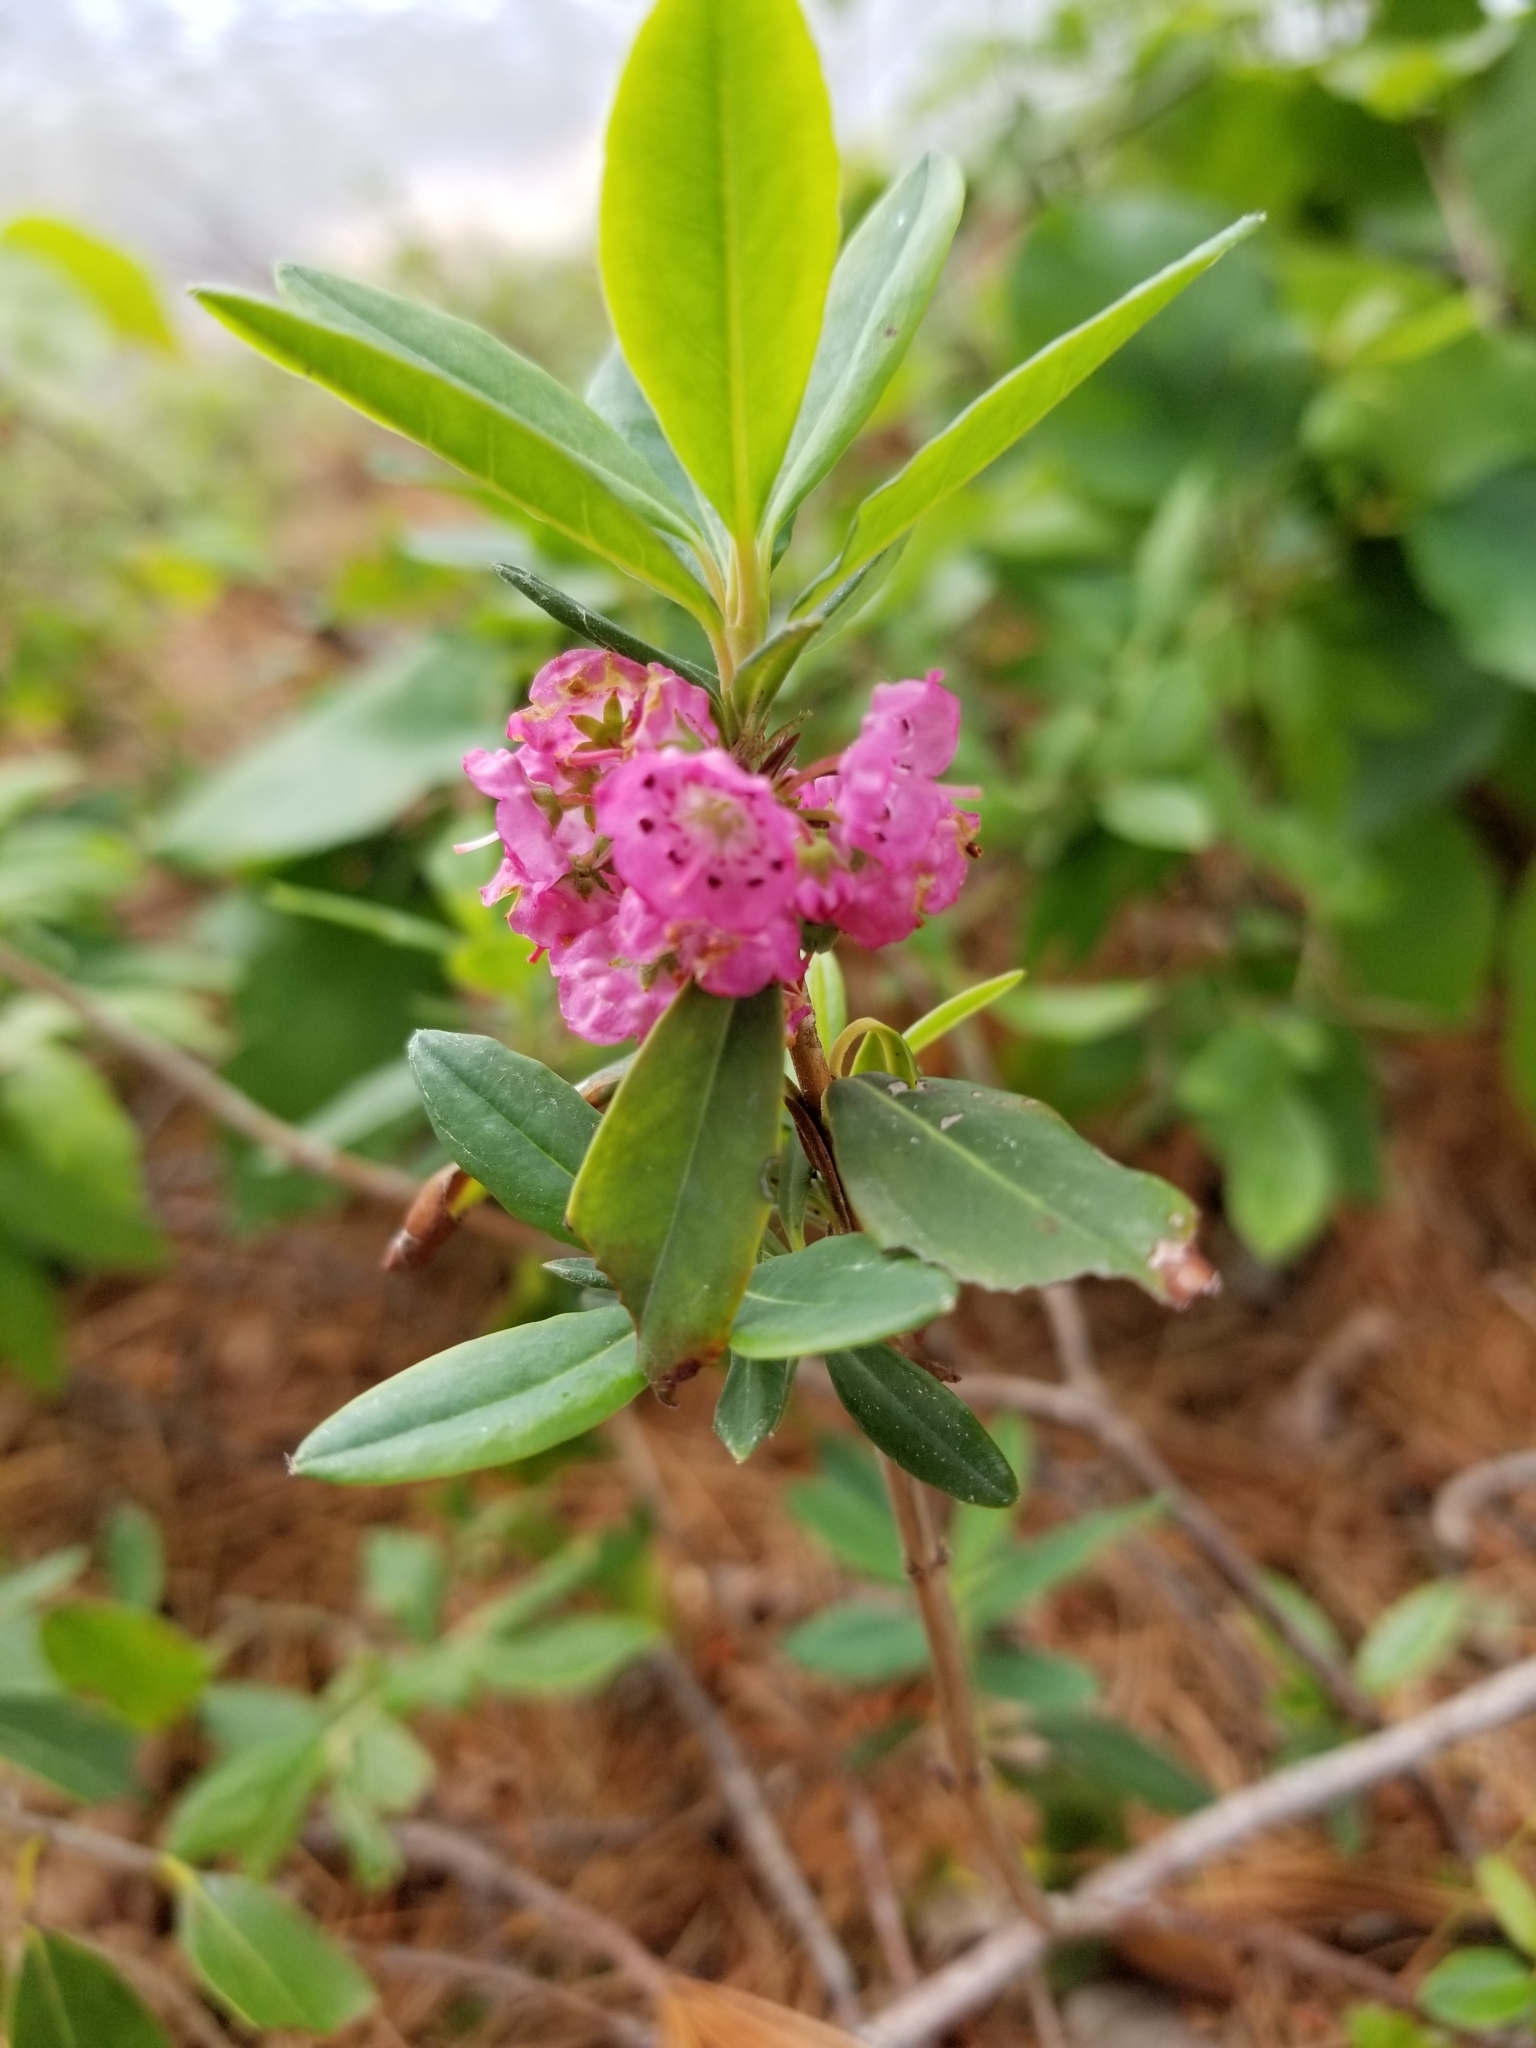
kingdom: Plantae
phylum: Tracheophyta
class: Magnoliopsida
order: Ericales
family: Ericaceae
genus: Kalmia
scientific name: Kalmia angustifolia
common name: Sheep-laurel
